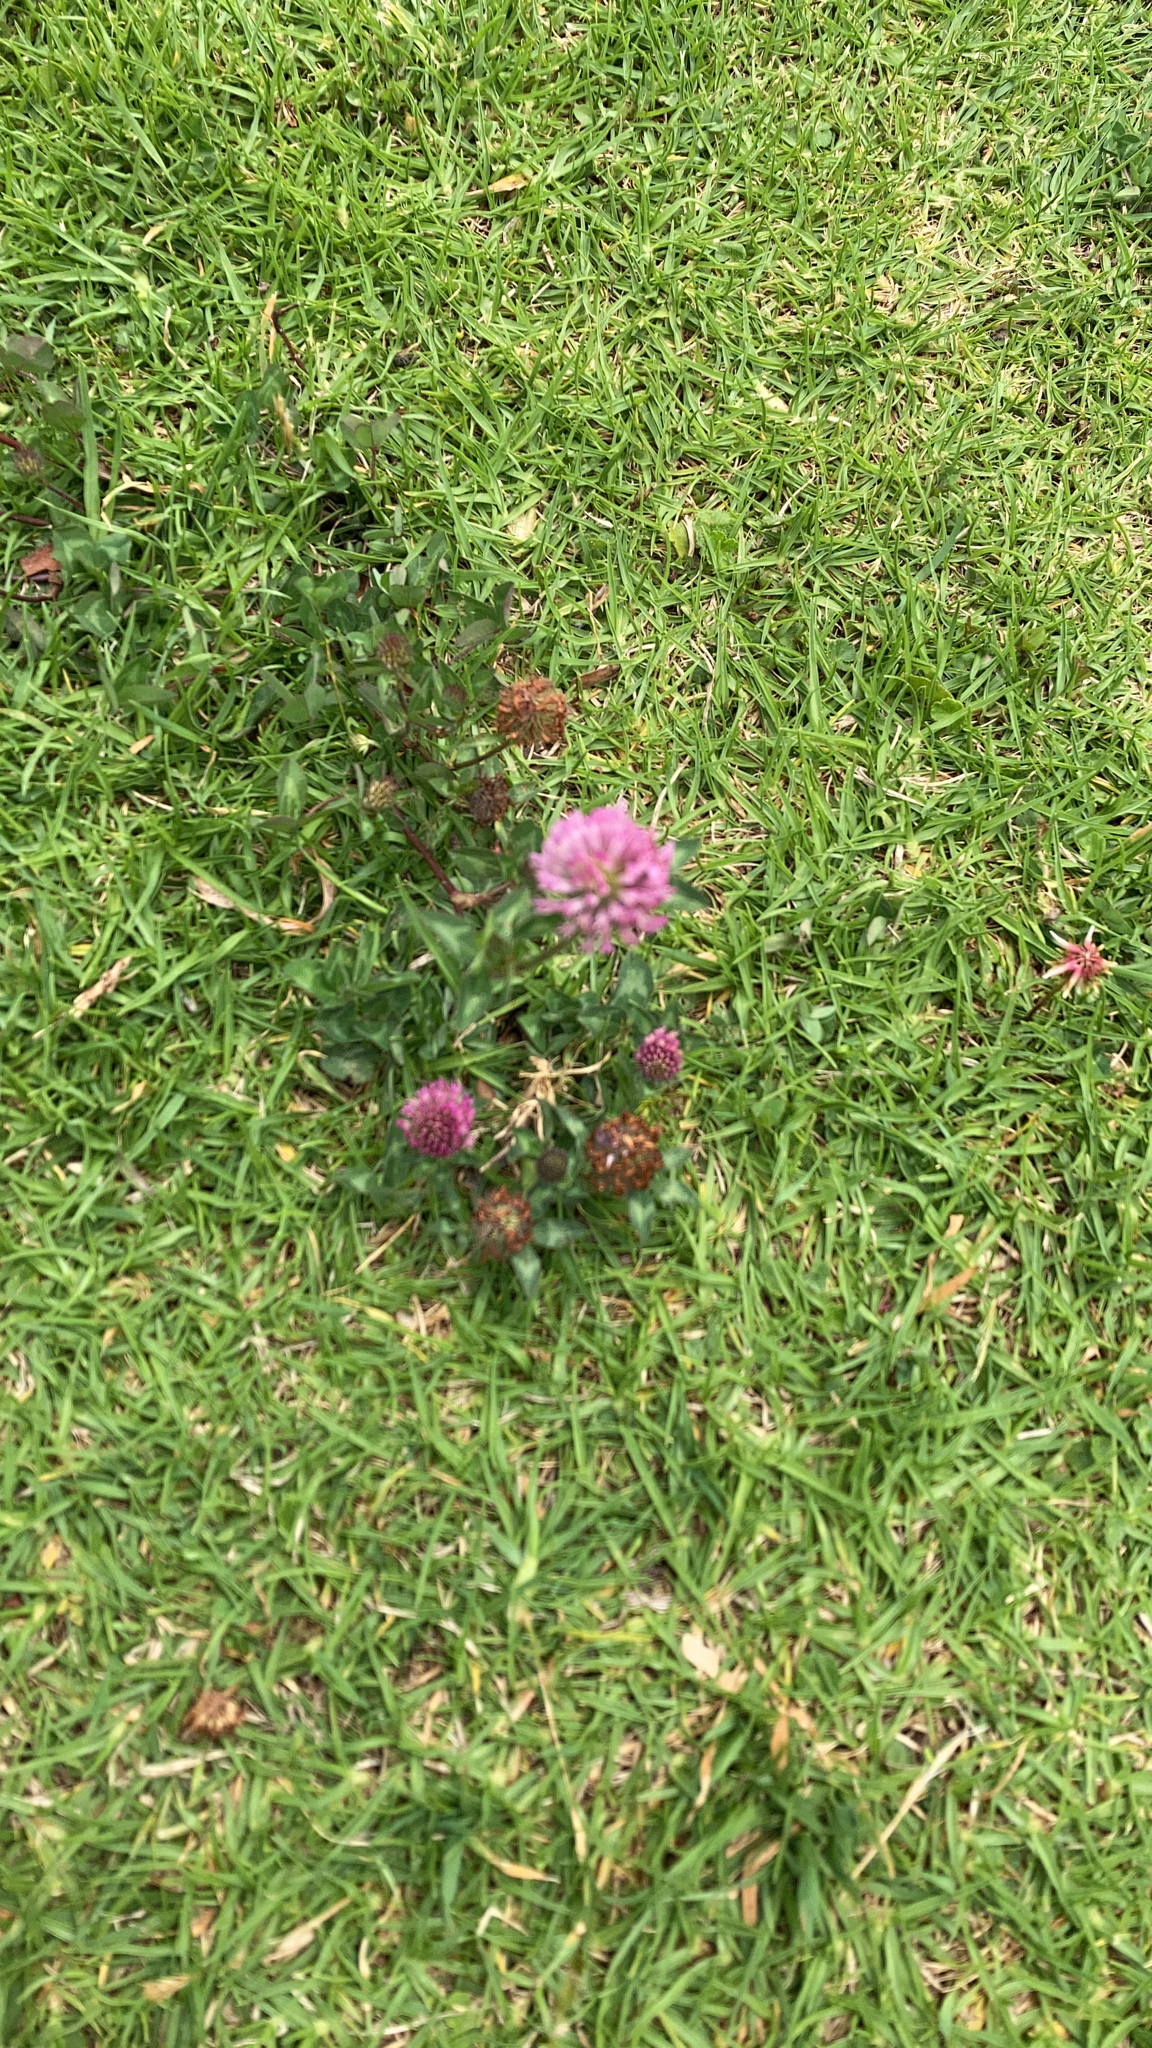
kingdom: Plantae
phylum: Tracheophyta
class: Magnoliopsida
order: Fabales
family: Fabaceae
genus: Trifolium
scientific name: Trifolium pratense
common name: Red clover
